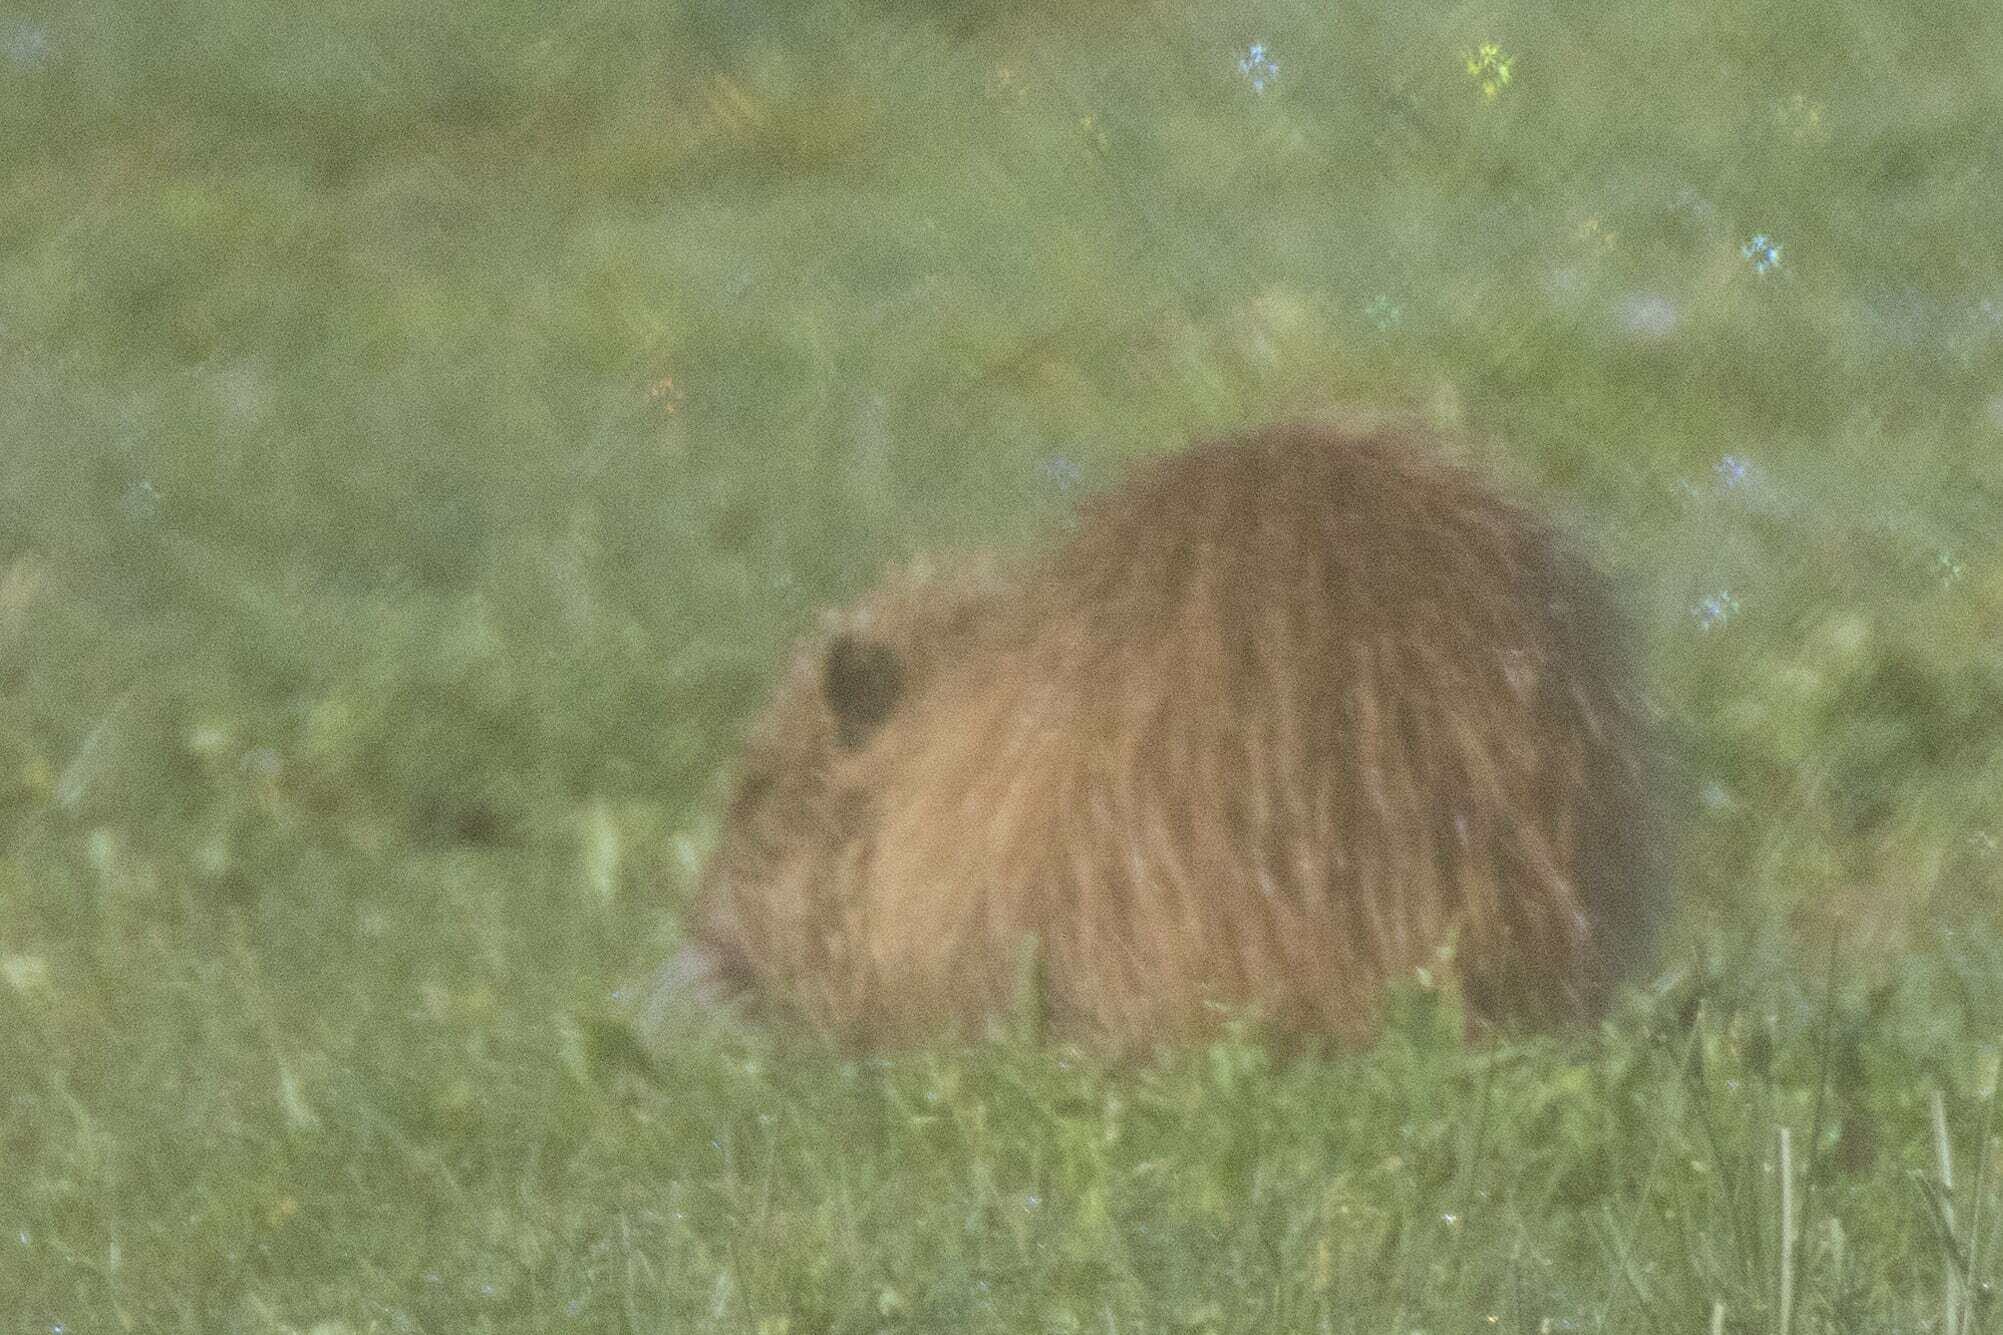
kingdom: Animalia
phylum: Chordata
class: Mammalia
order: Rodentia
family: Myocastoridae
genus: Myocastor
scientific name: Myocastor coypus
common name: Coypu
